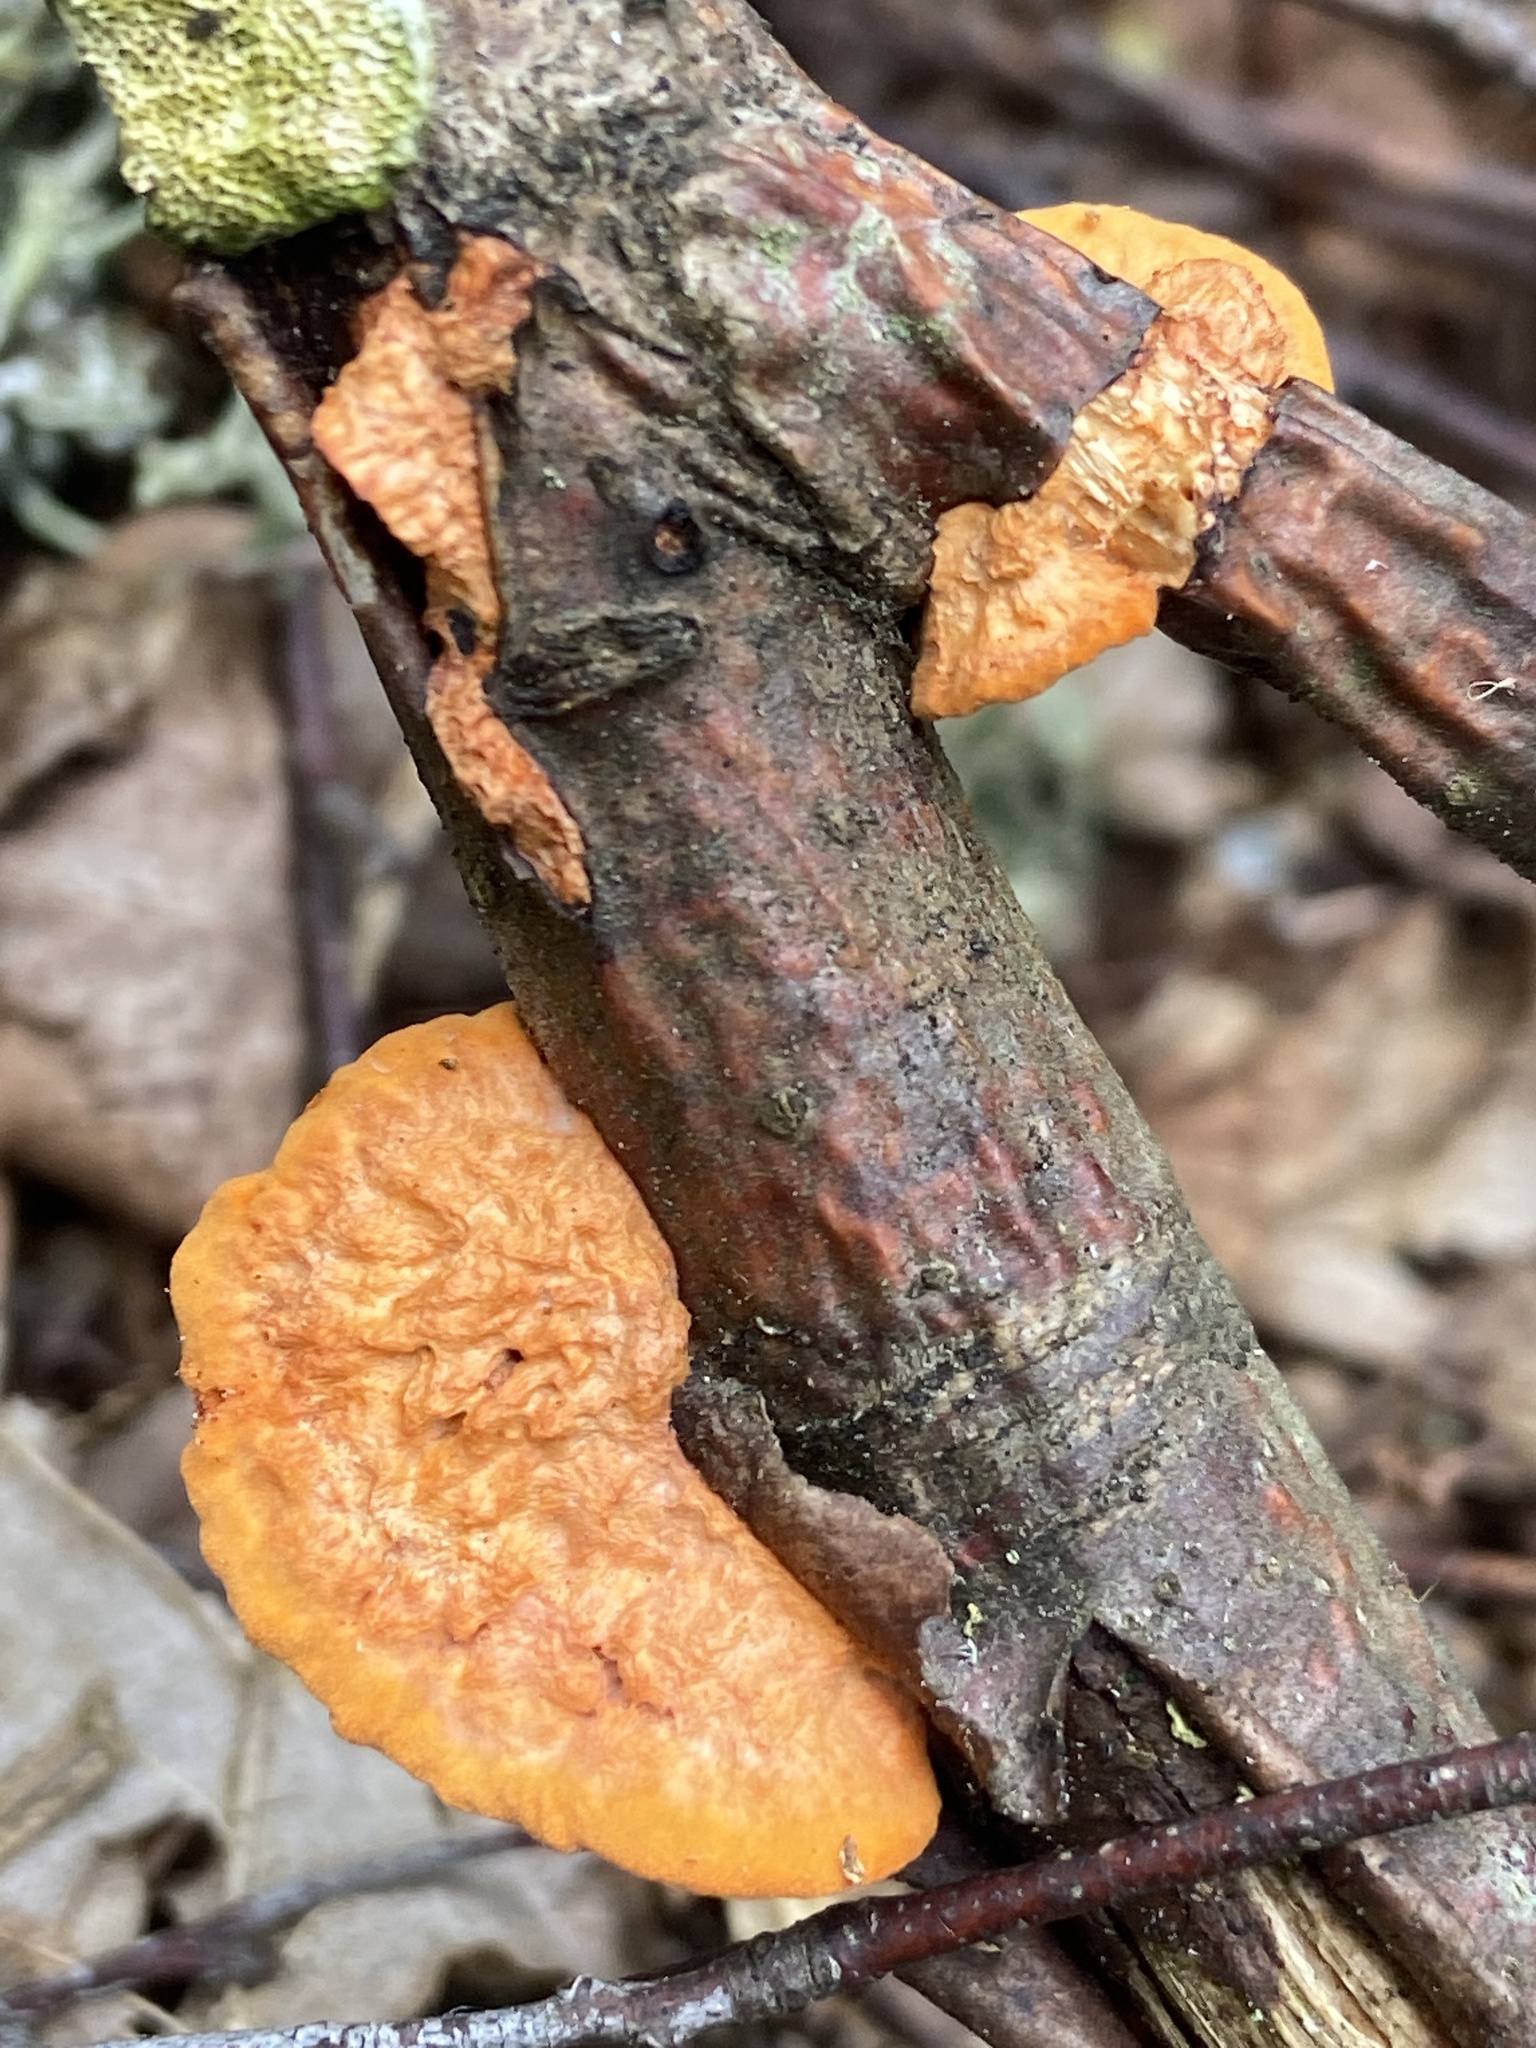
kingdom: Fungi
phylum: Basidiomycota
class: Agaricomycetes
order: Polyporales
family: Polyporaceae
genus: Trametes
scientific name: Trametes cinnabarina
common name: Northern cinnabar polypore
